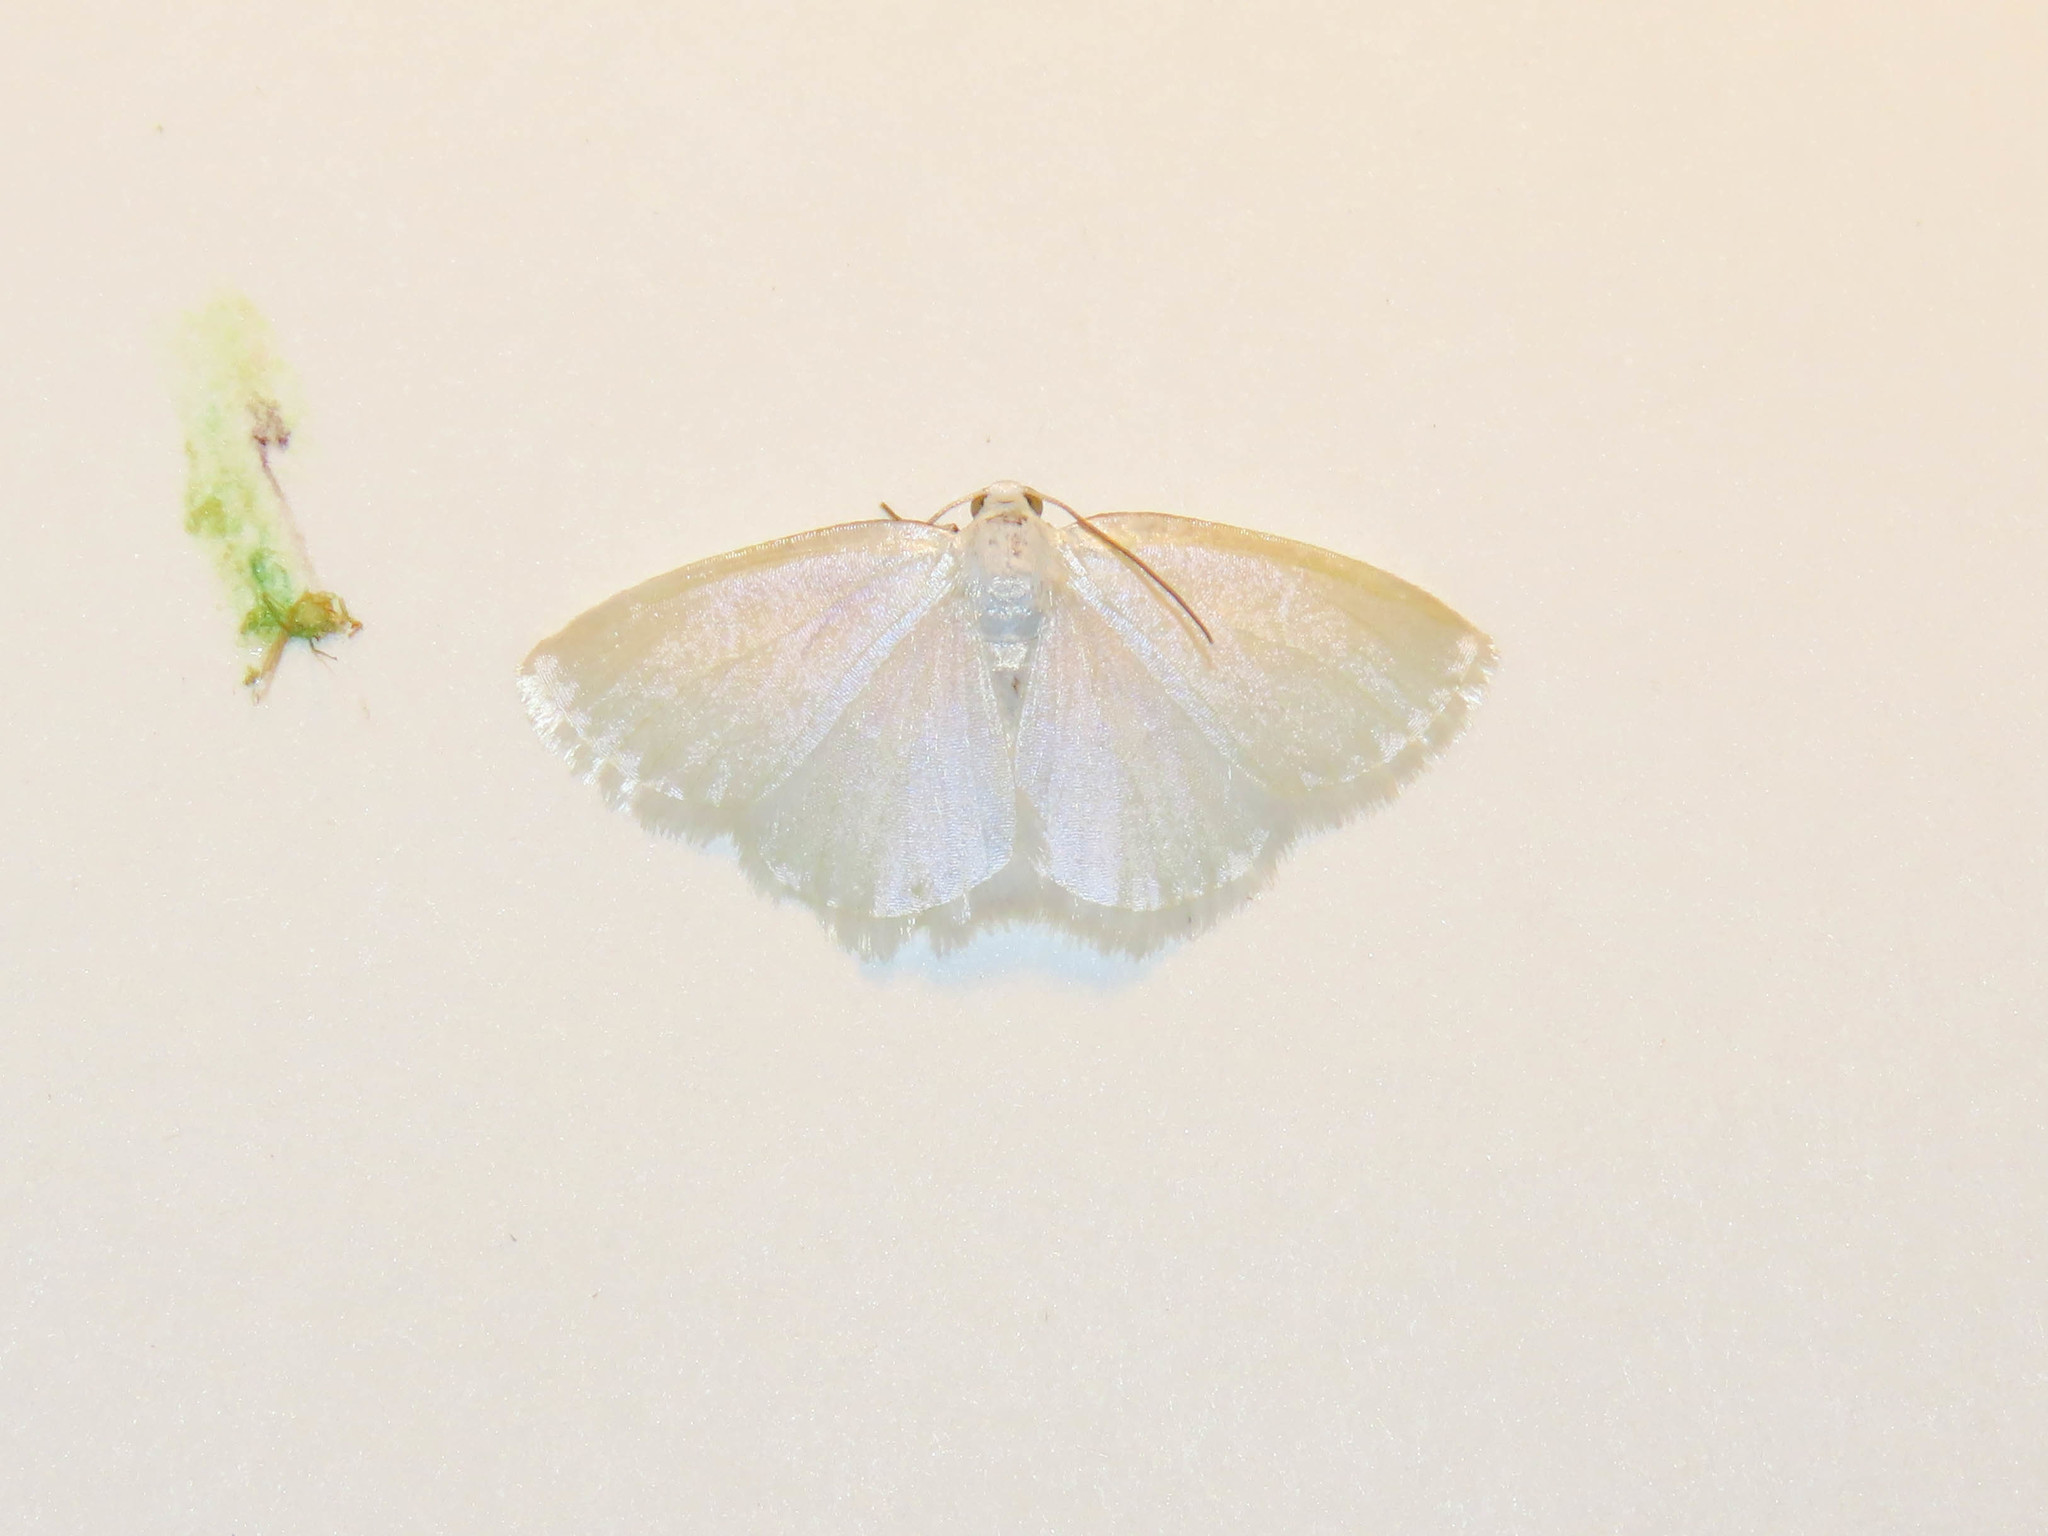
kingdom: Animalia
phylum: Arthropoda
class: Insecta
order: Lepidoptera
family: Geometridae
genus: Lomographa
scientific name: Lomographa vestaliata
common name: White spring moth
